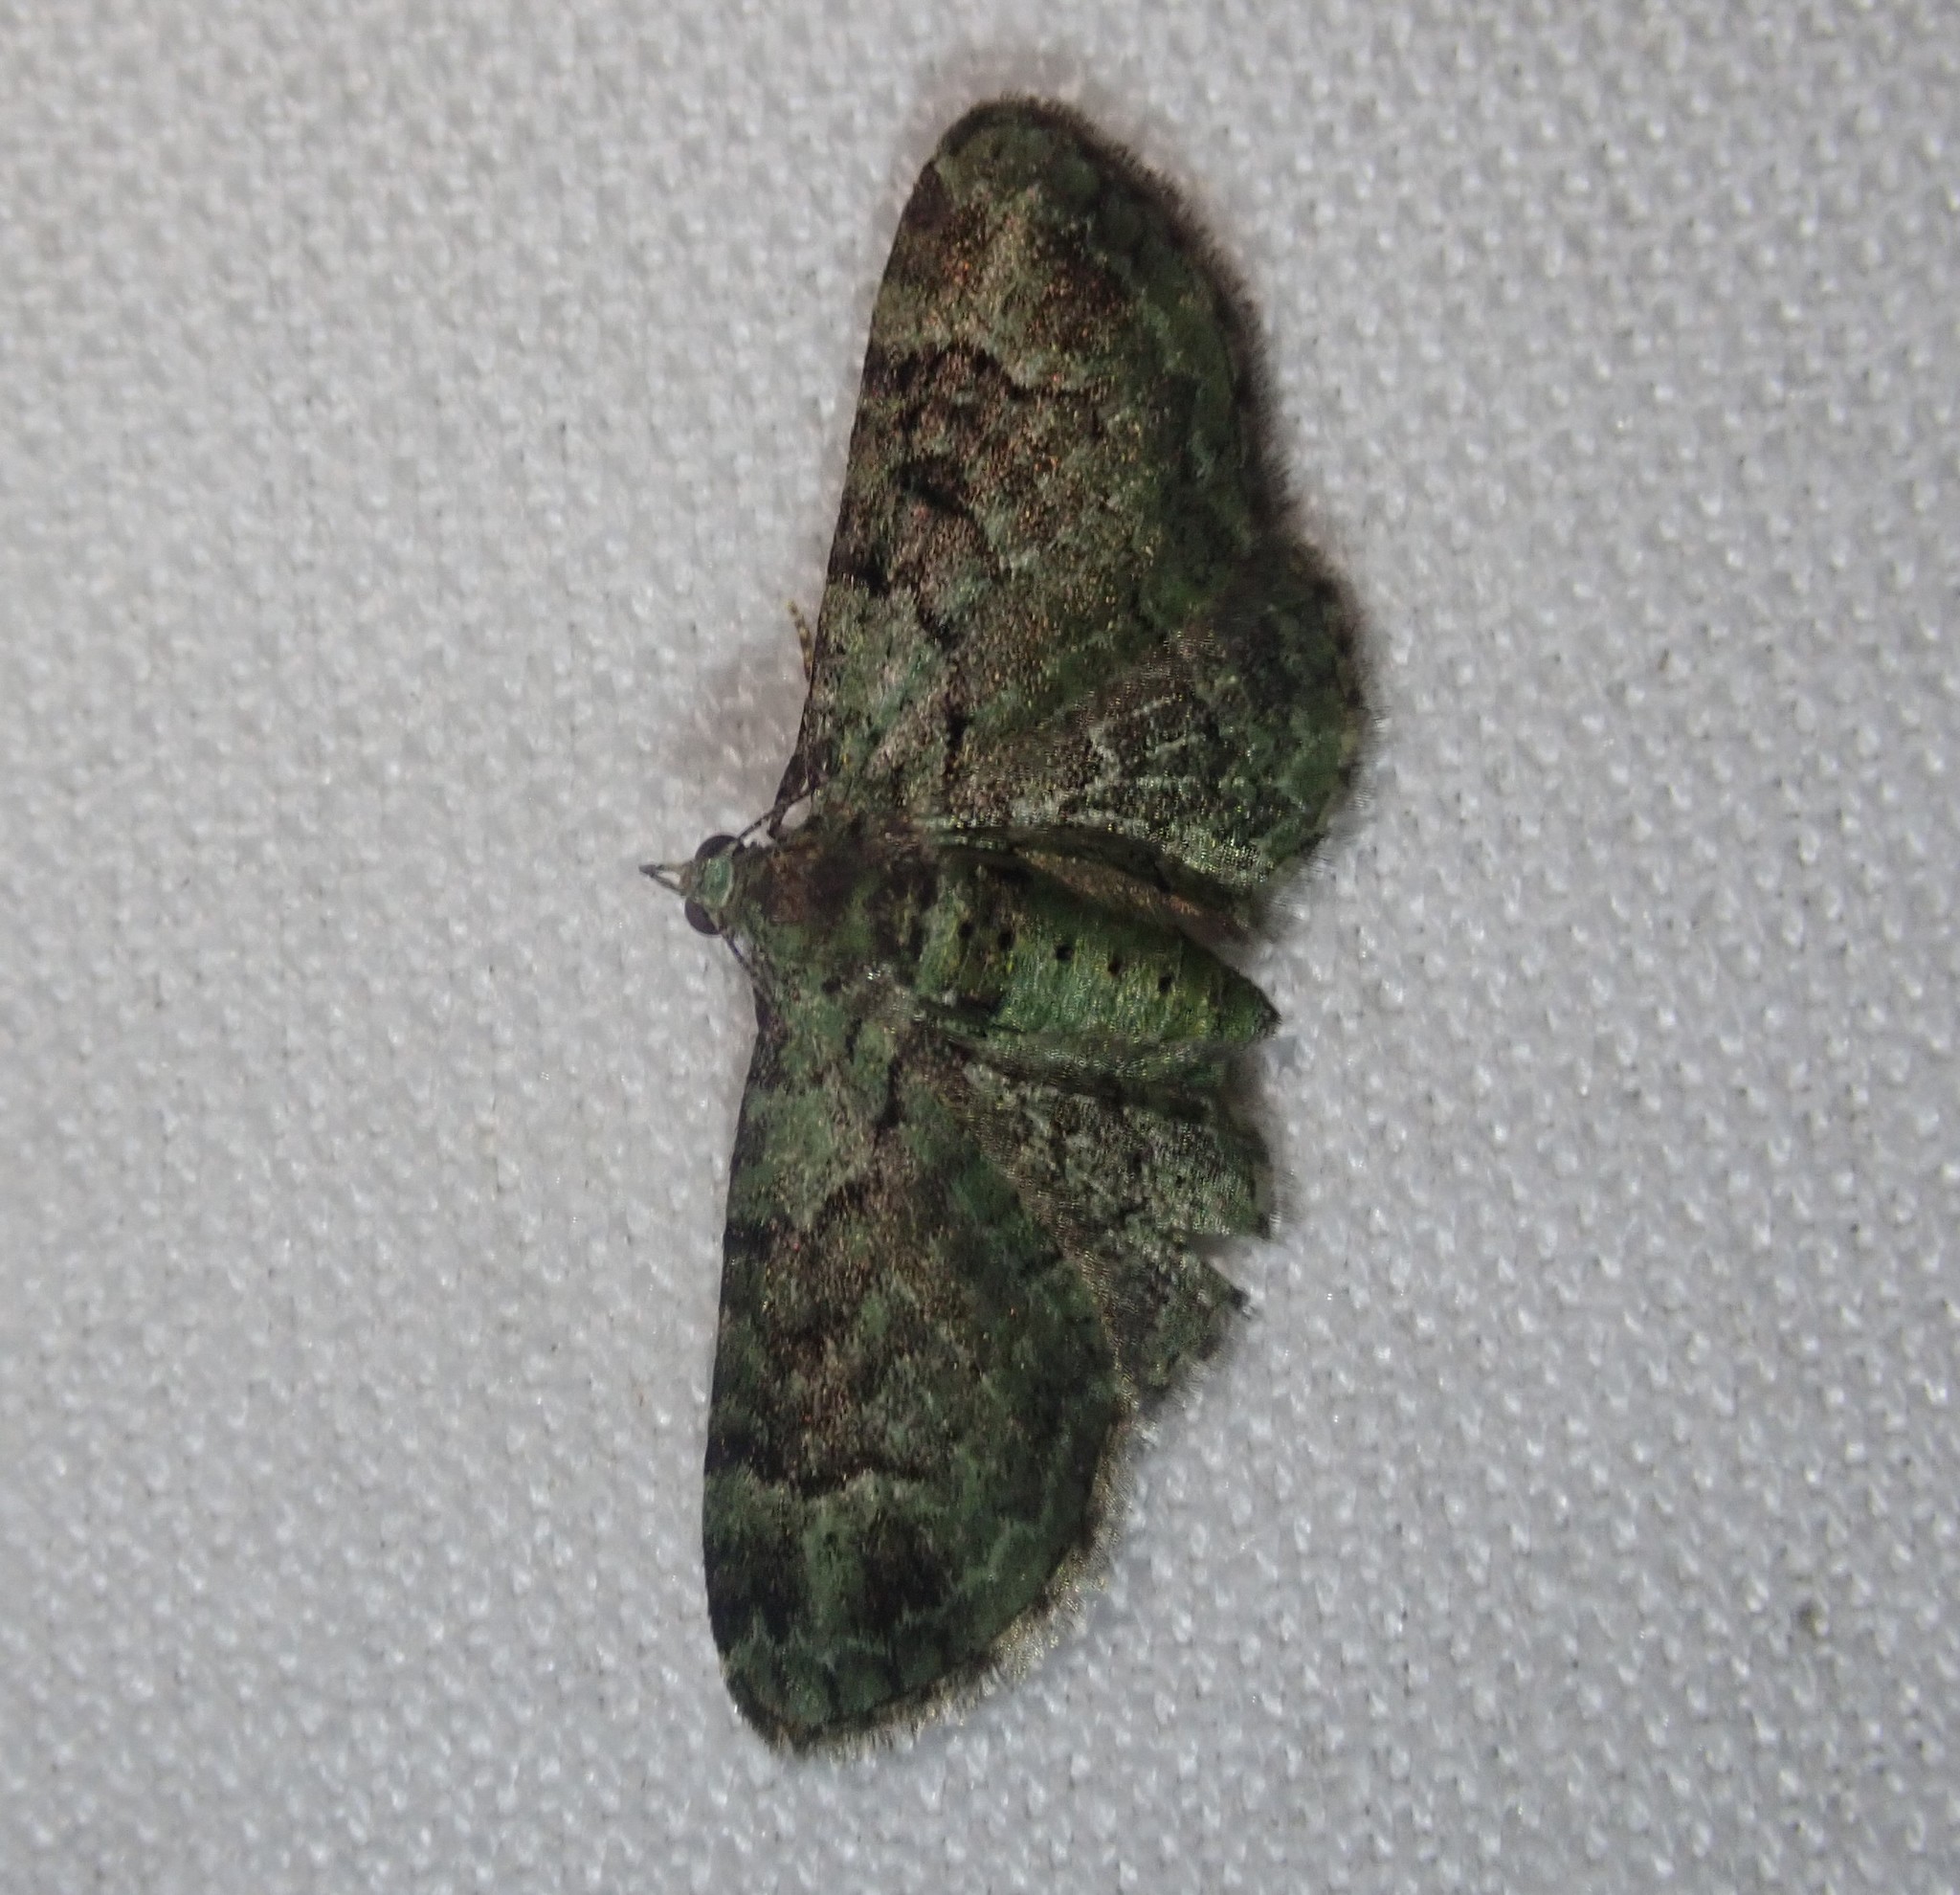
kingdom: Animalia
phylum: Arthropoda
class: Insecta
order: Lepidoptera
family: Geometridae
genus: Pasiphila
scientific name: Pasiphila rectangulata
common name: Green pug
